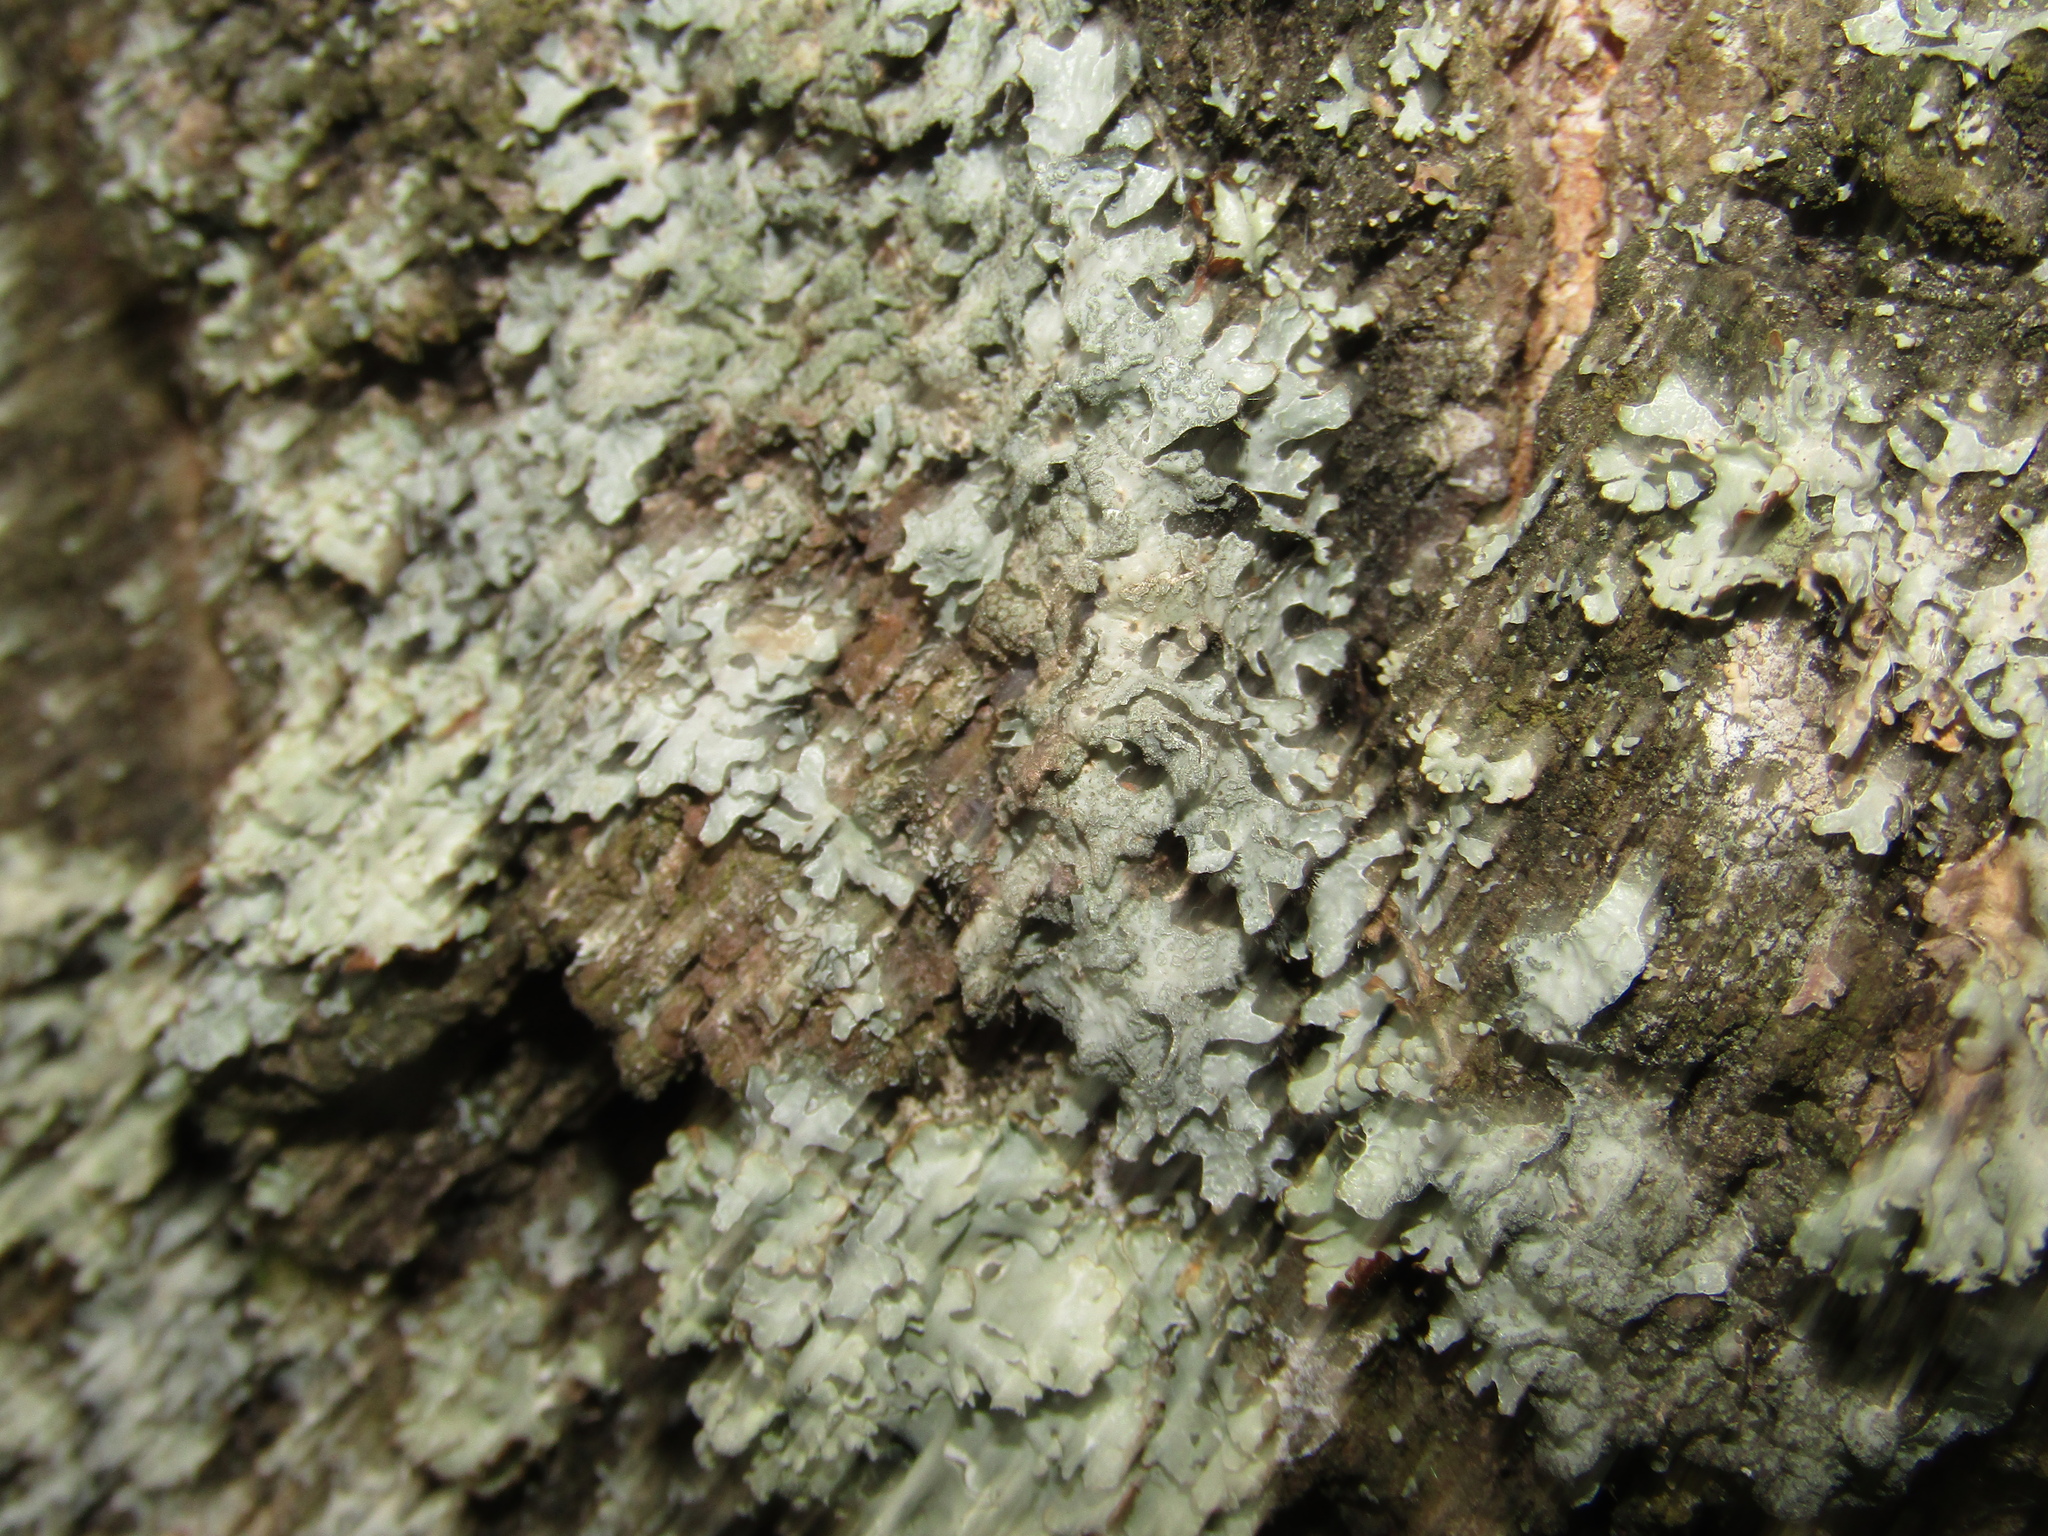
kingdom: Fungi
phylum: Ascomycota
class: Lecanoromycetes
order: Lecanorales
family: Parmeliaceae
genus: Parmelia
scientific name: Parmelia sulcata
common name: Netted shield lichen
